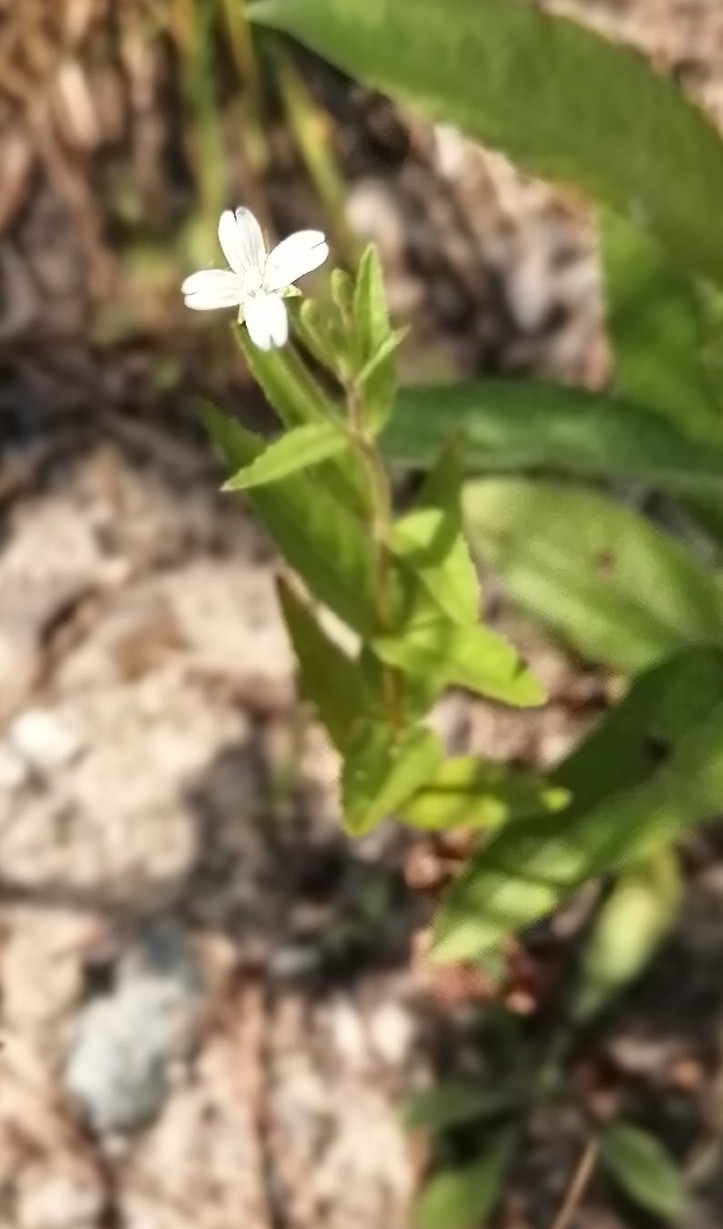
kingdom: Plantae
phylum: Tracheophyta
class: Magnoliopsida
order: Myrtales
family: Onagraceae
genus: Epilobium
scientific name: Epilobium pseudorubescens
